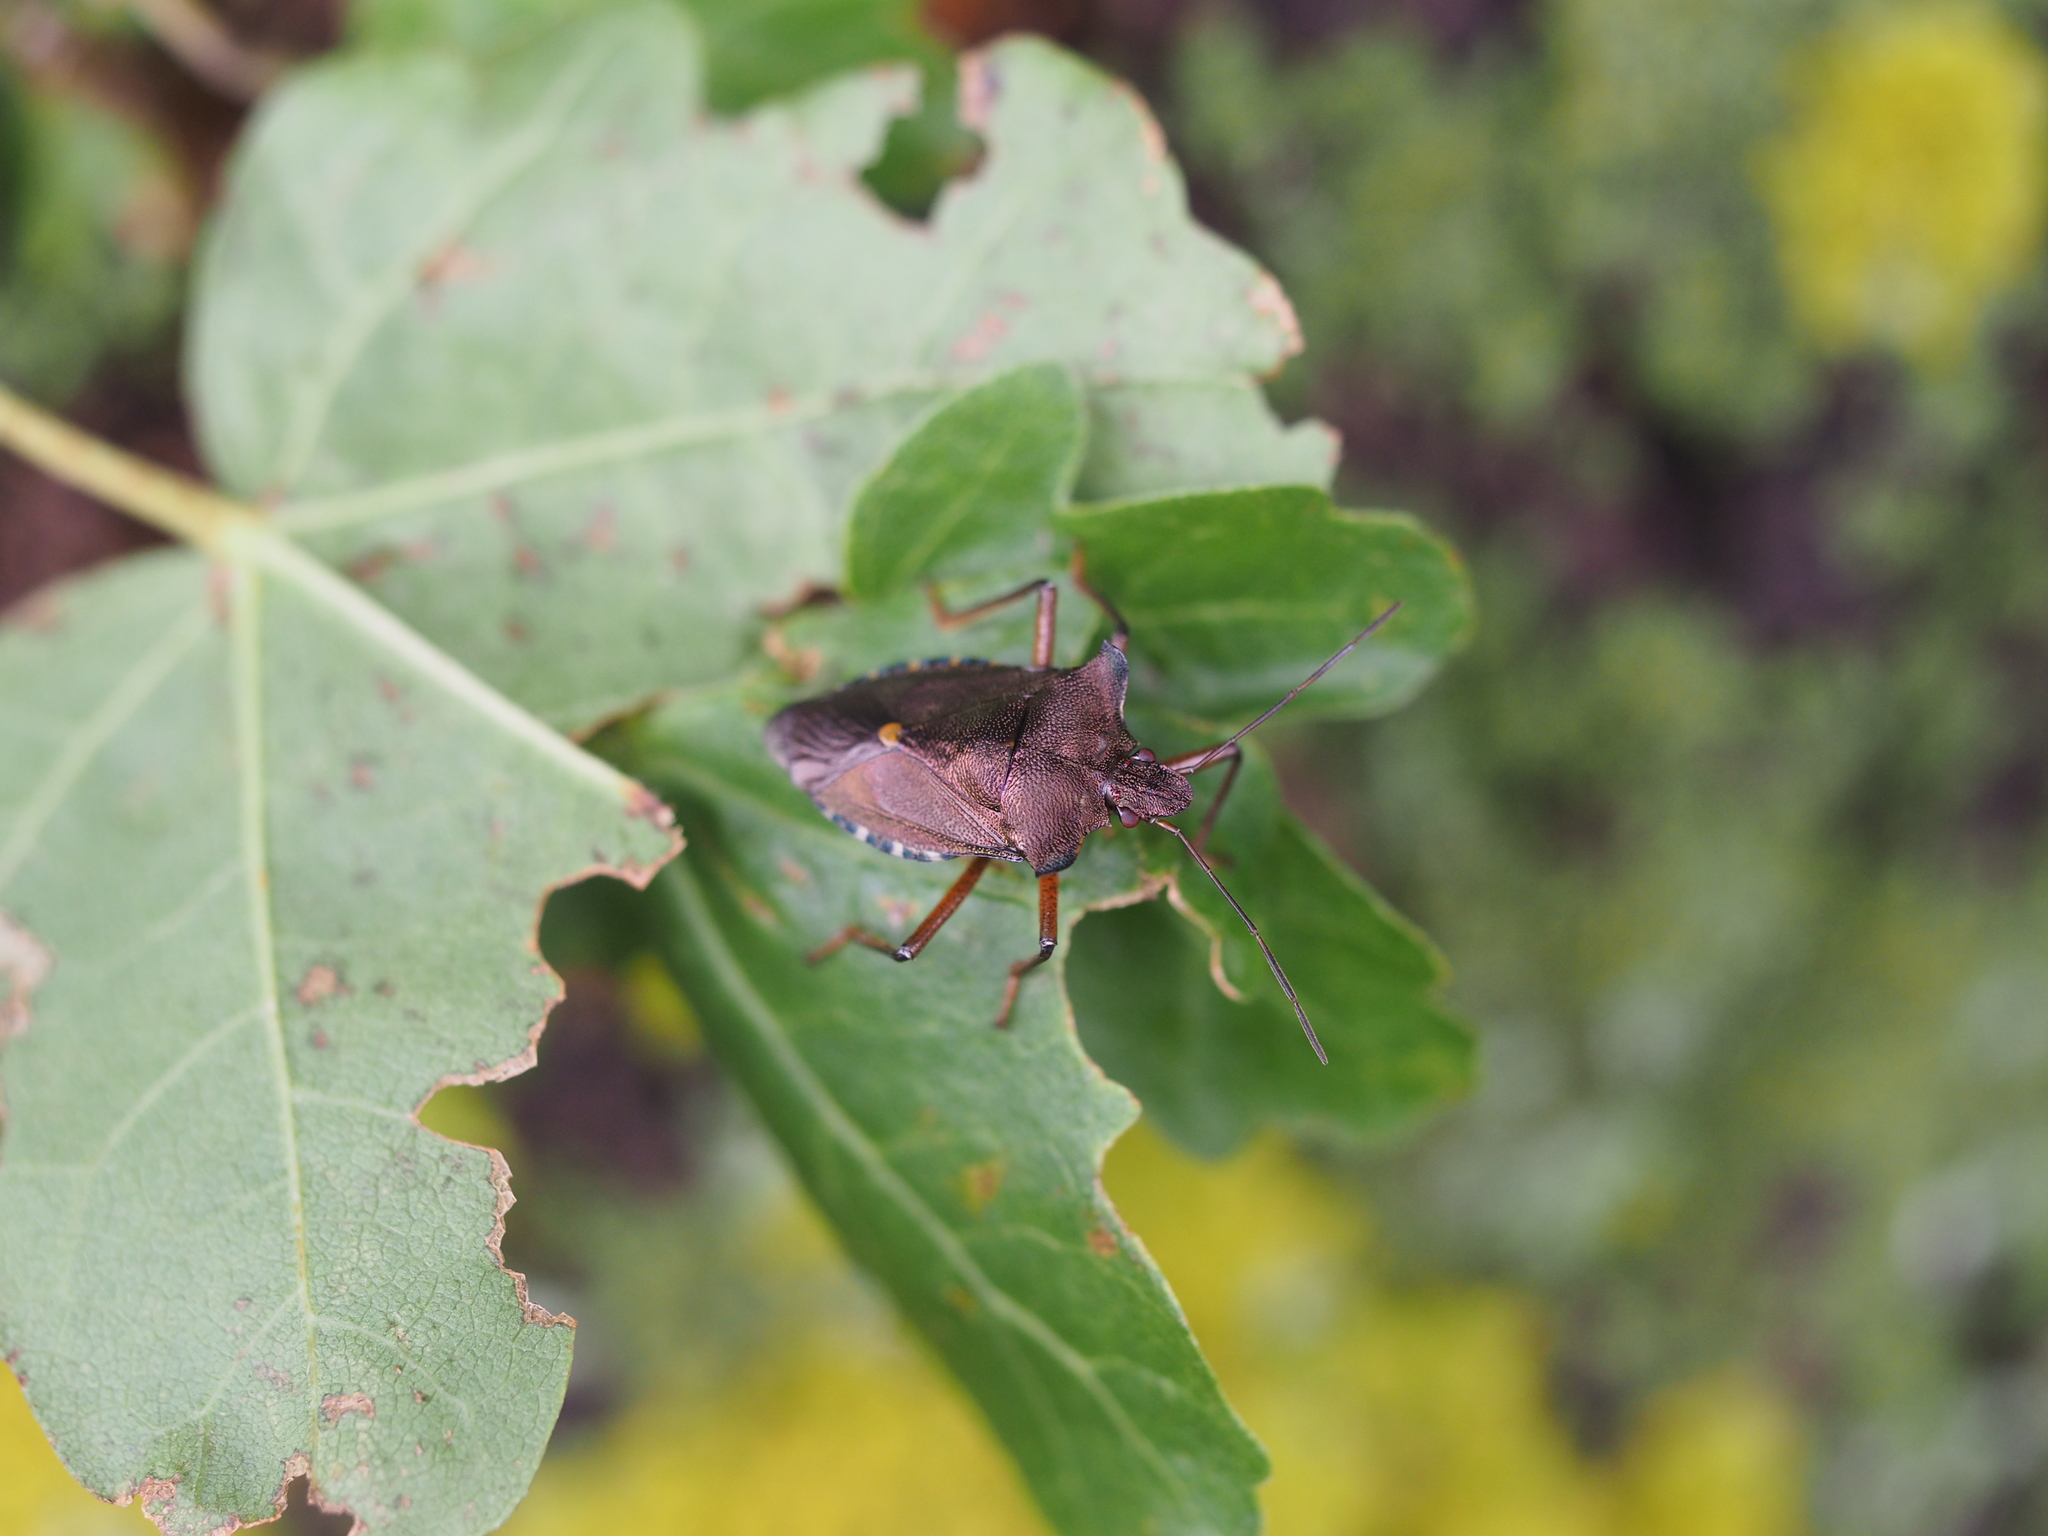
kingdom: Animalia
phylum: Arthropoda
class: Insecta
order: Hemiptera
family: Pentatomidae
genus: Pentatoma
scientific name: Pentatoma rufipes
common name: Forest bug
